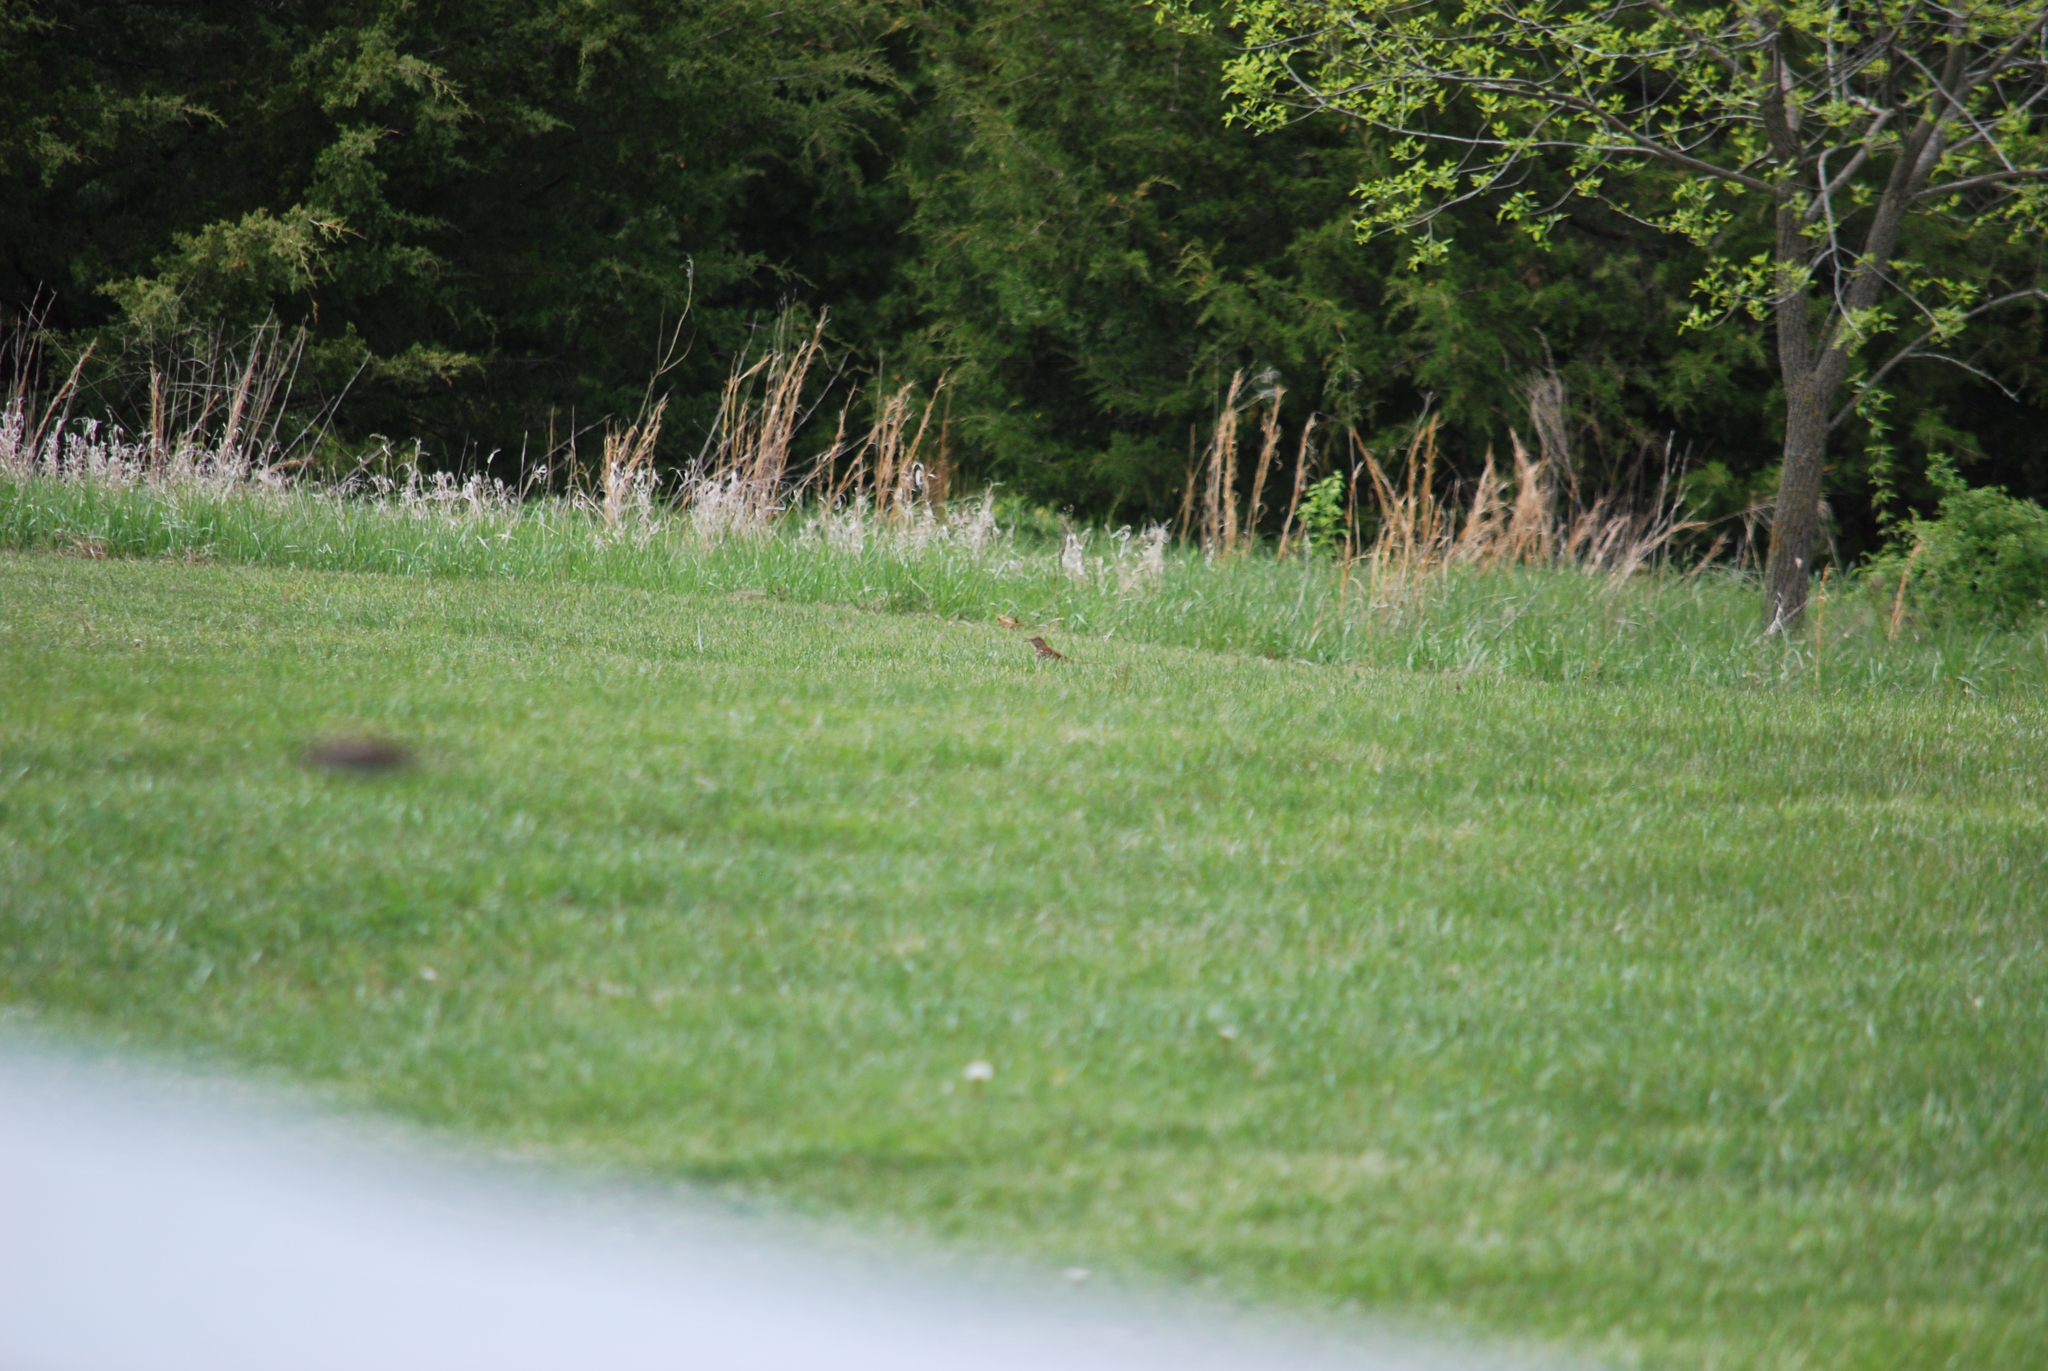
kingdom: Animalia
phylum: Chordata
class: Aves
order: Passeriformes
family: Mimidae
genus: Toxostoma
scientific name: Toxostoma rufum
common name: Brown thrasher
